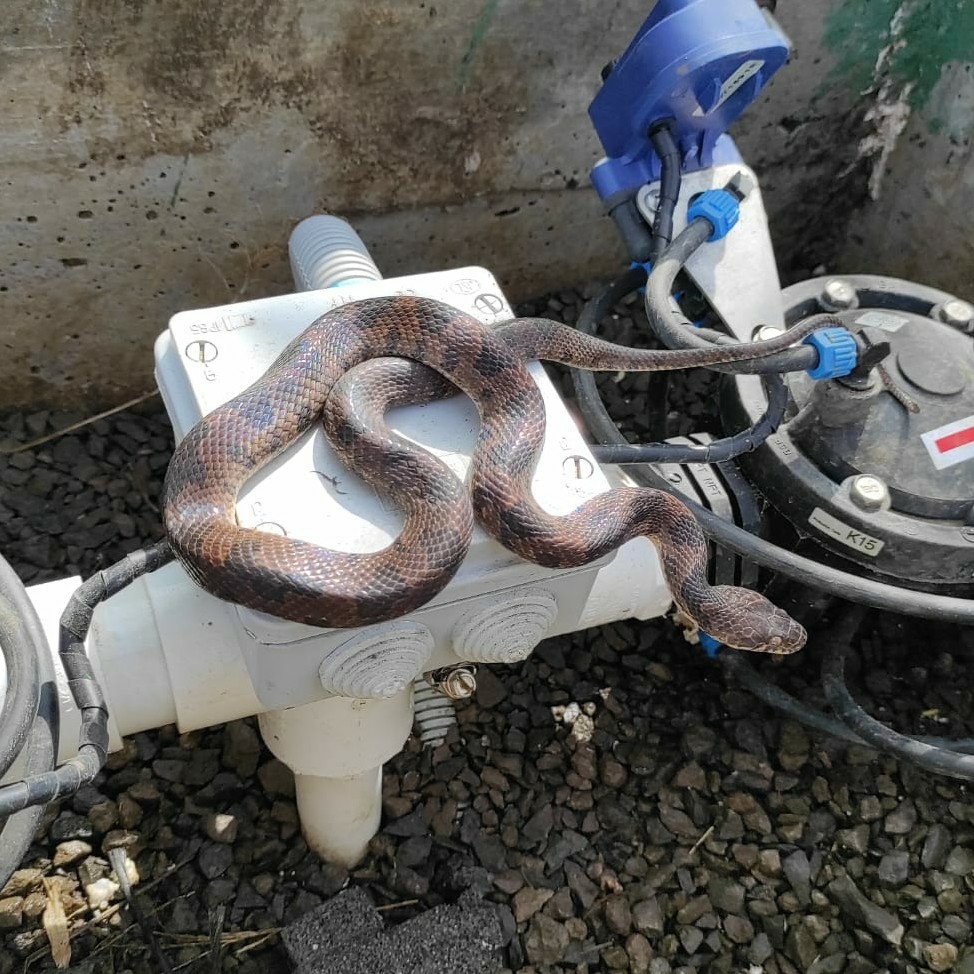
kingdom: Animalia
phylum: Chordata
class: Squamata
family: Colubridae
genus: Leptodeira
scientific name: Leptodeira rhombifera
